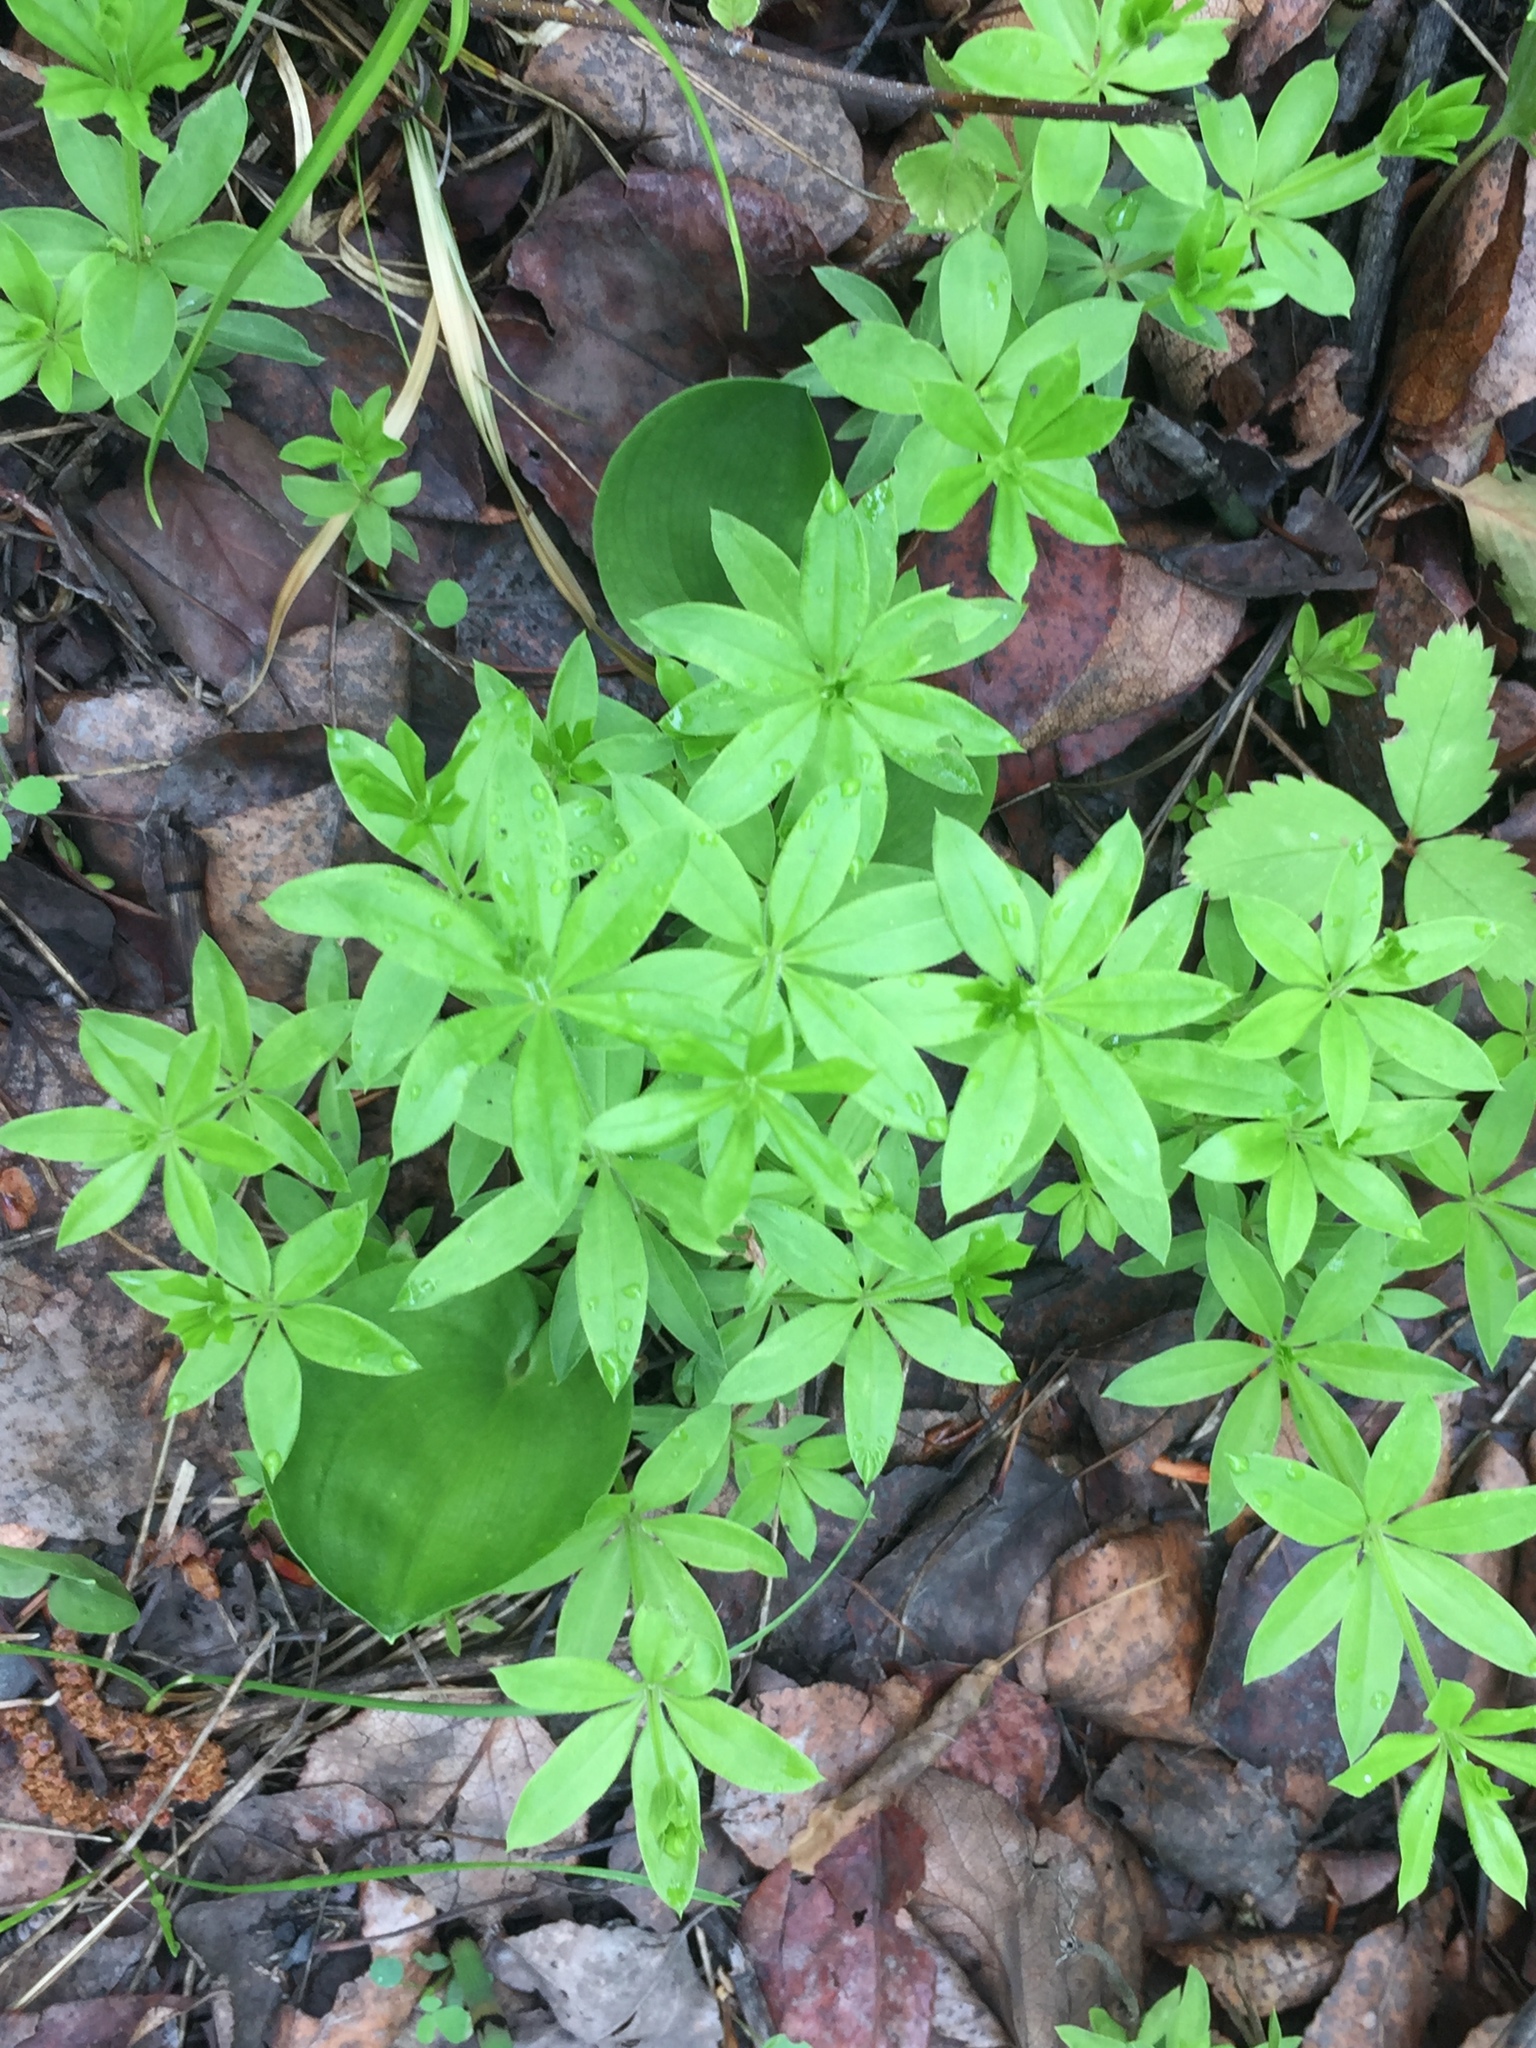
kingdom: Plantae
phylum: Tracheophyta
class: Magnoliopsida
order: Gentianales
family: Rubiaceae
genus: Galium
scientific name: Galium triflorum
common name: Fragrant bedstraw
